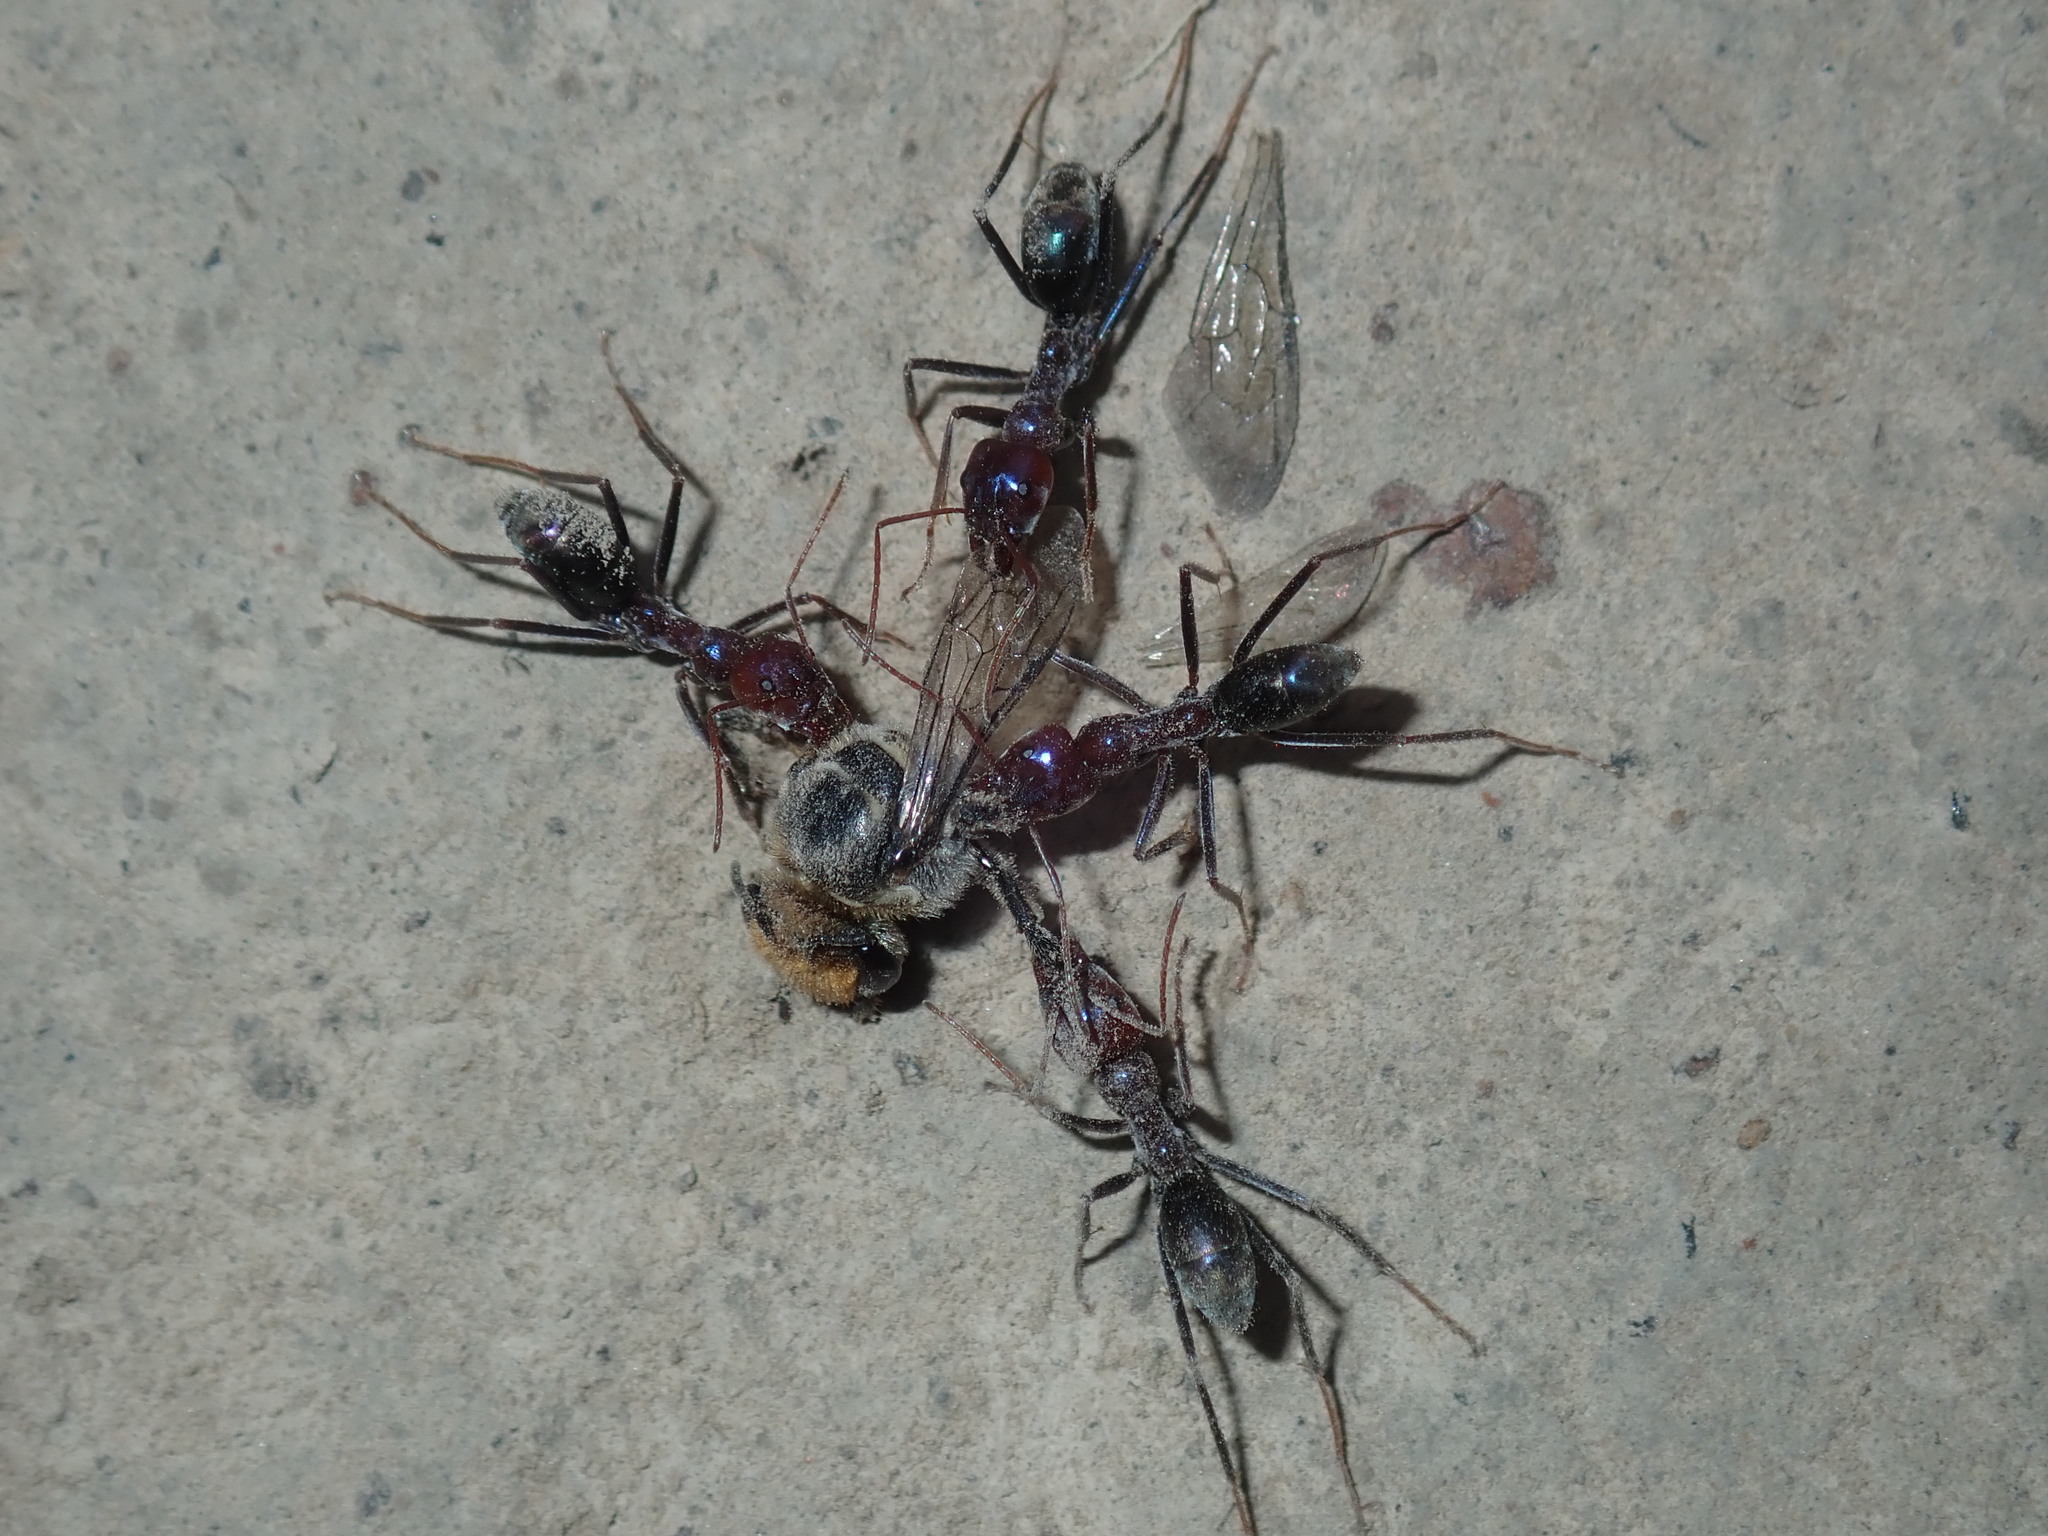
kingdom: Animalia
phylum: Arthropoda
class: Insecta
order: Hymenoptera
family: Formicidae
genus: Iridomyrmex
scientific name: Iridomyrmex purpureus
